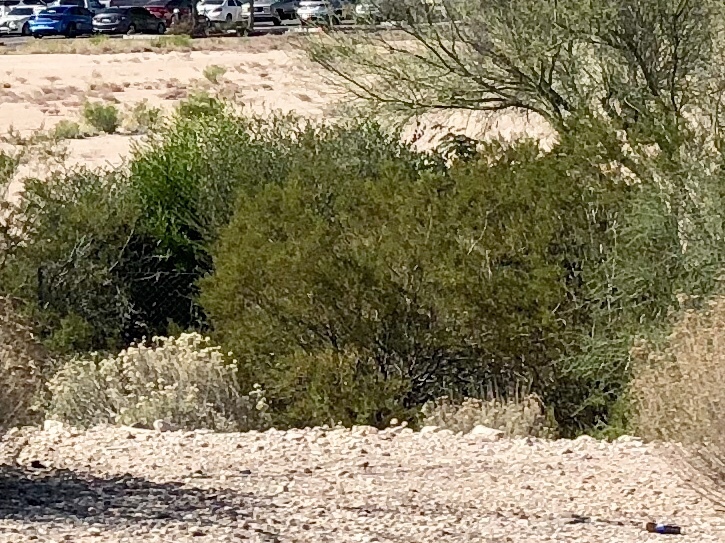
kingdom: Plantae
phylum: Tracheophyta
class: Magnoliopsida
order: Zygophyllales
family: Zygophyllaceae
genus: Larrea
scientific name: Larrea tridentata
